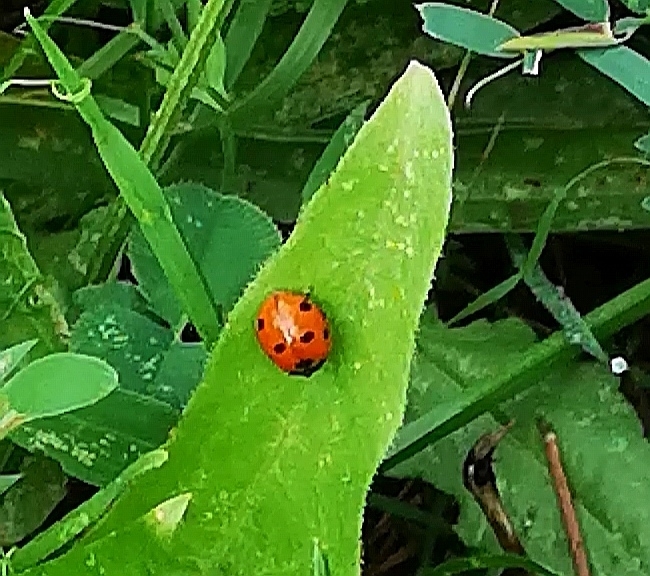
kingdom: Animalia
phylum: Arthropoda
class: Insecta
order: Coleoptera
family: Coccinellidae
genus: Coccinella
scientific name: Coccinella septempunctata
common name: Sevenspotted lady beetle
